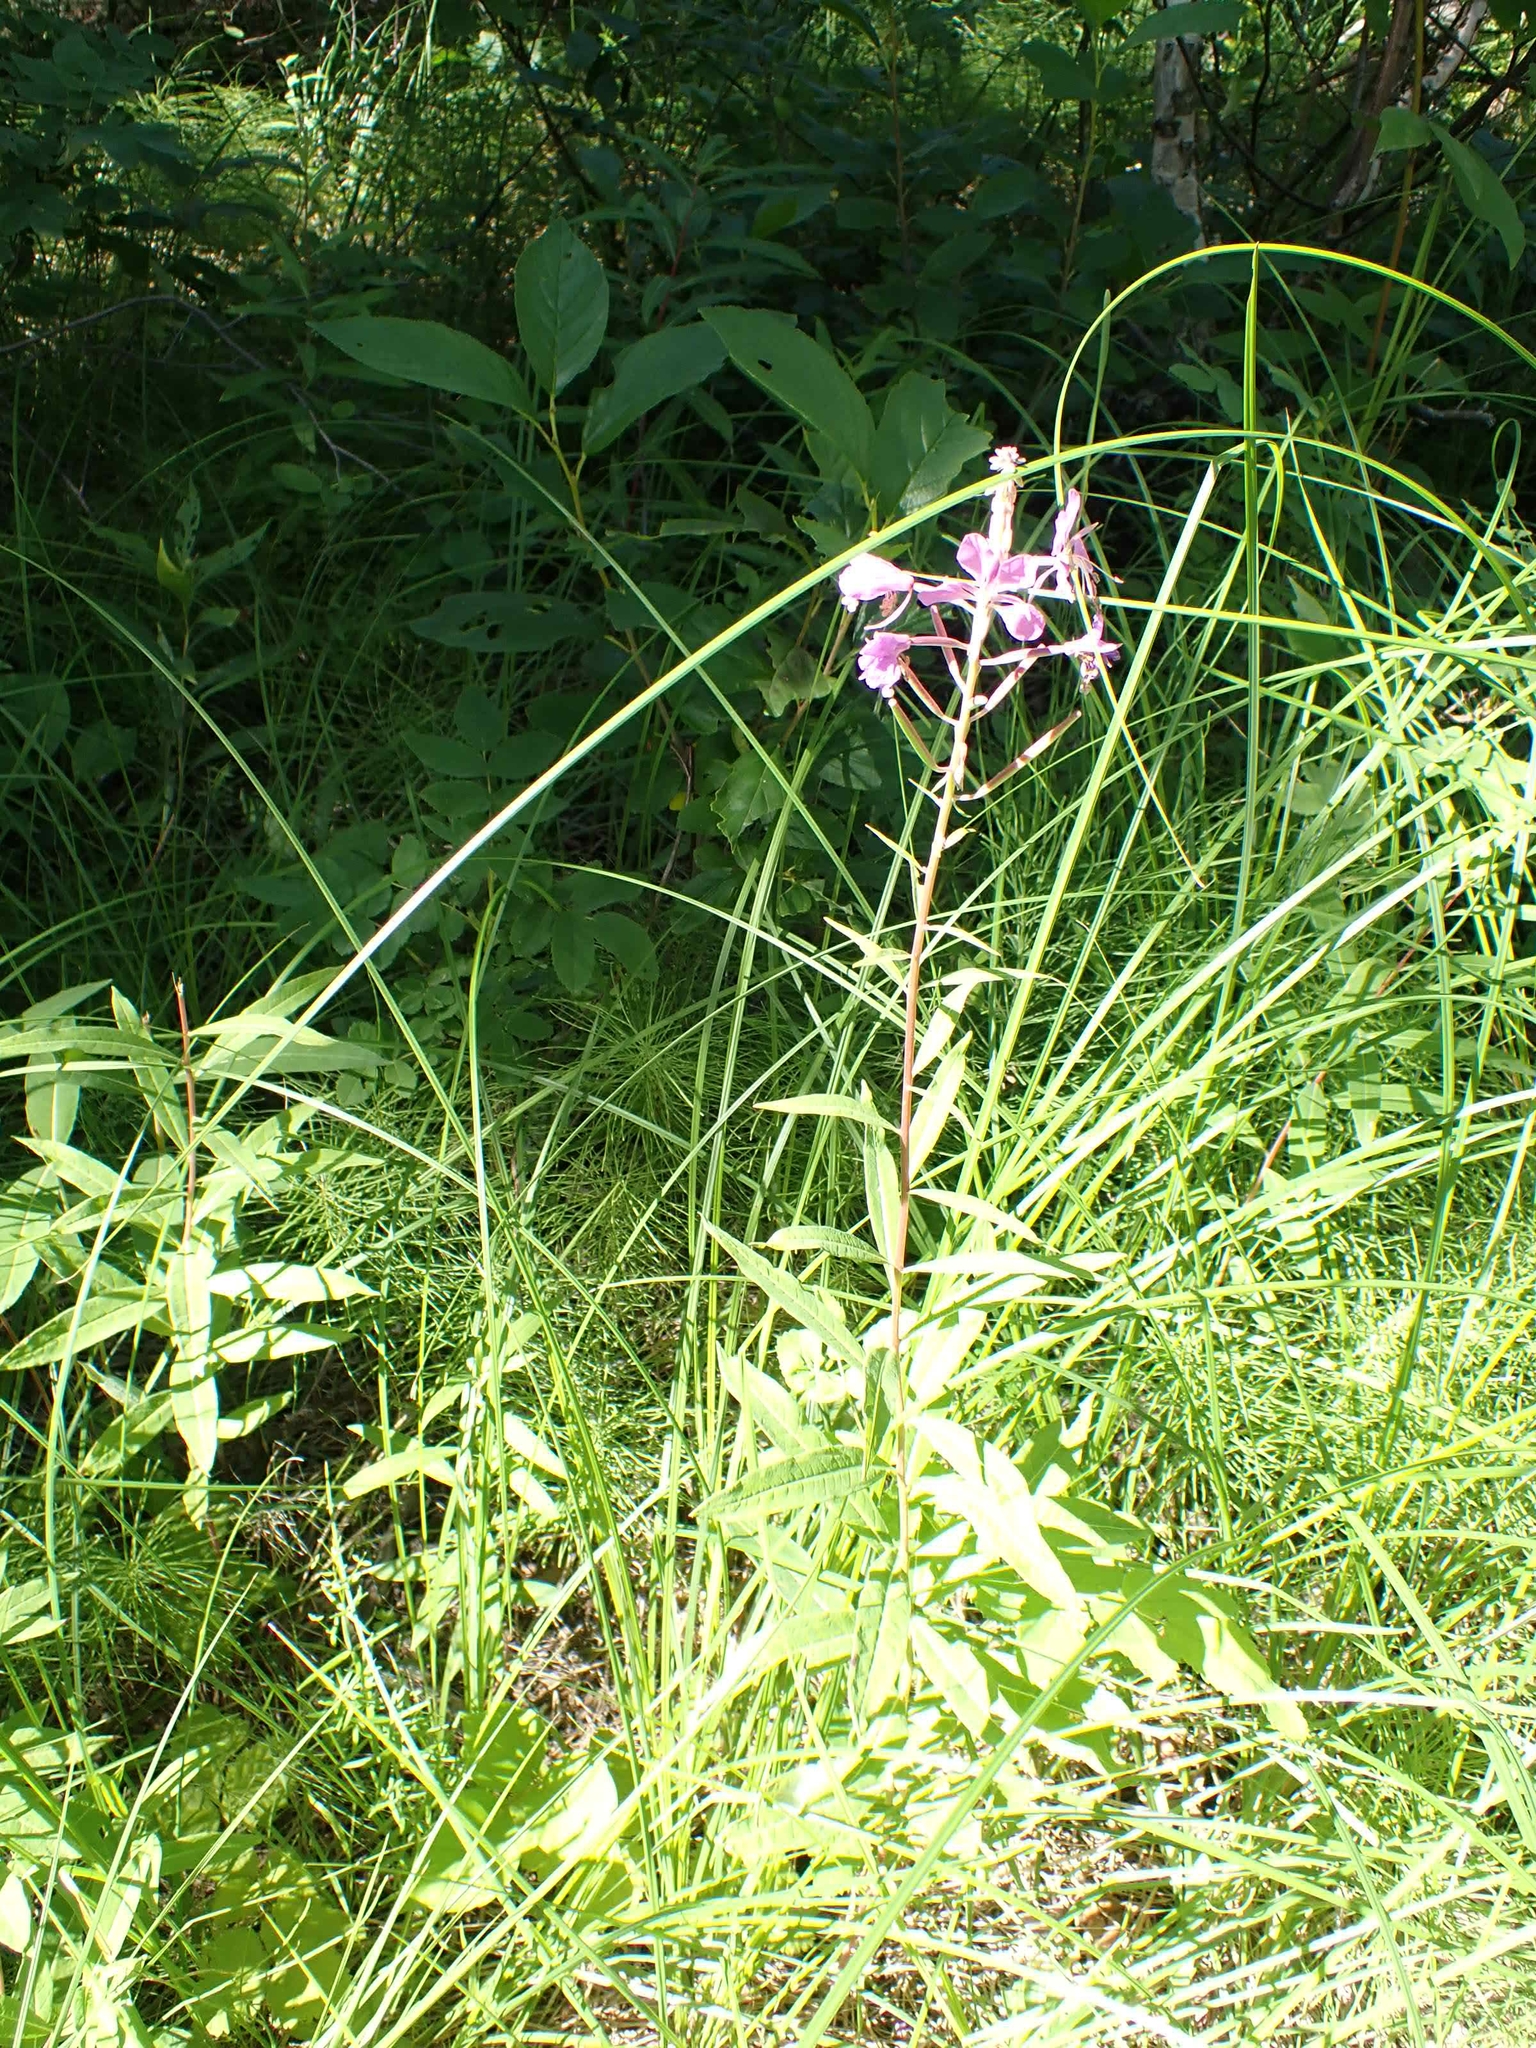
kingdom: Plantae
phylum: Tracheophyta
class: Magnoliopsida
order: Myrtales
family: Onagraceae
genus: Chamaenerion
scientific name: Chamaenerion angustifolium
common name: Fireweed
